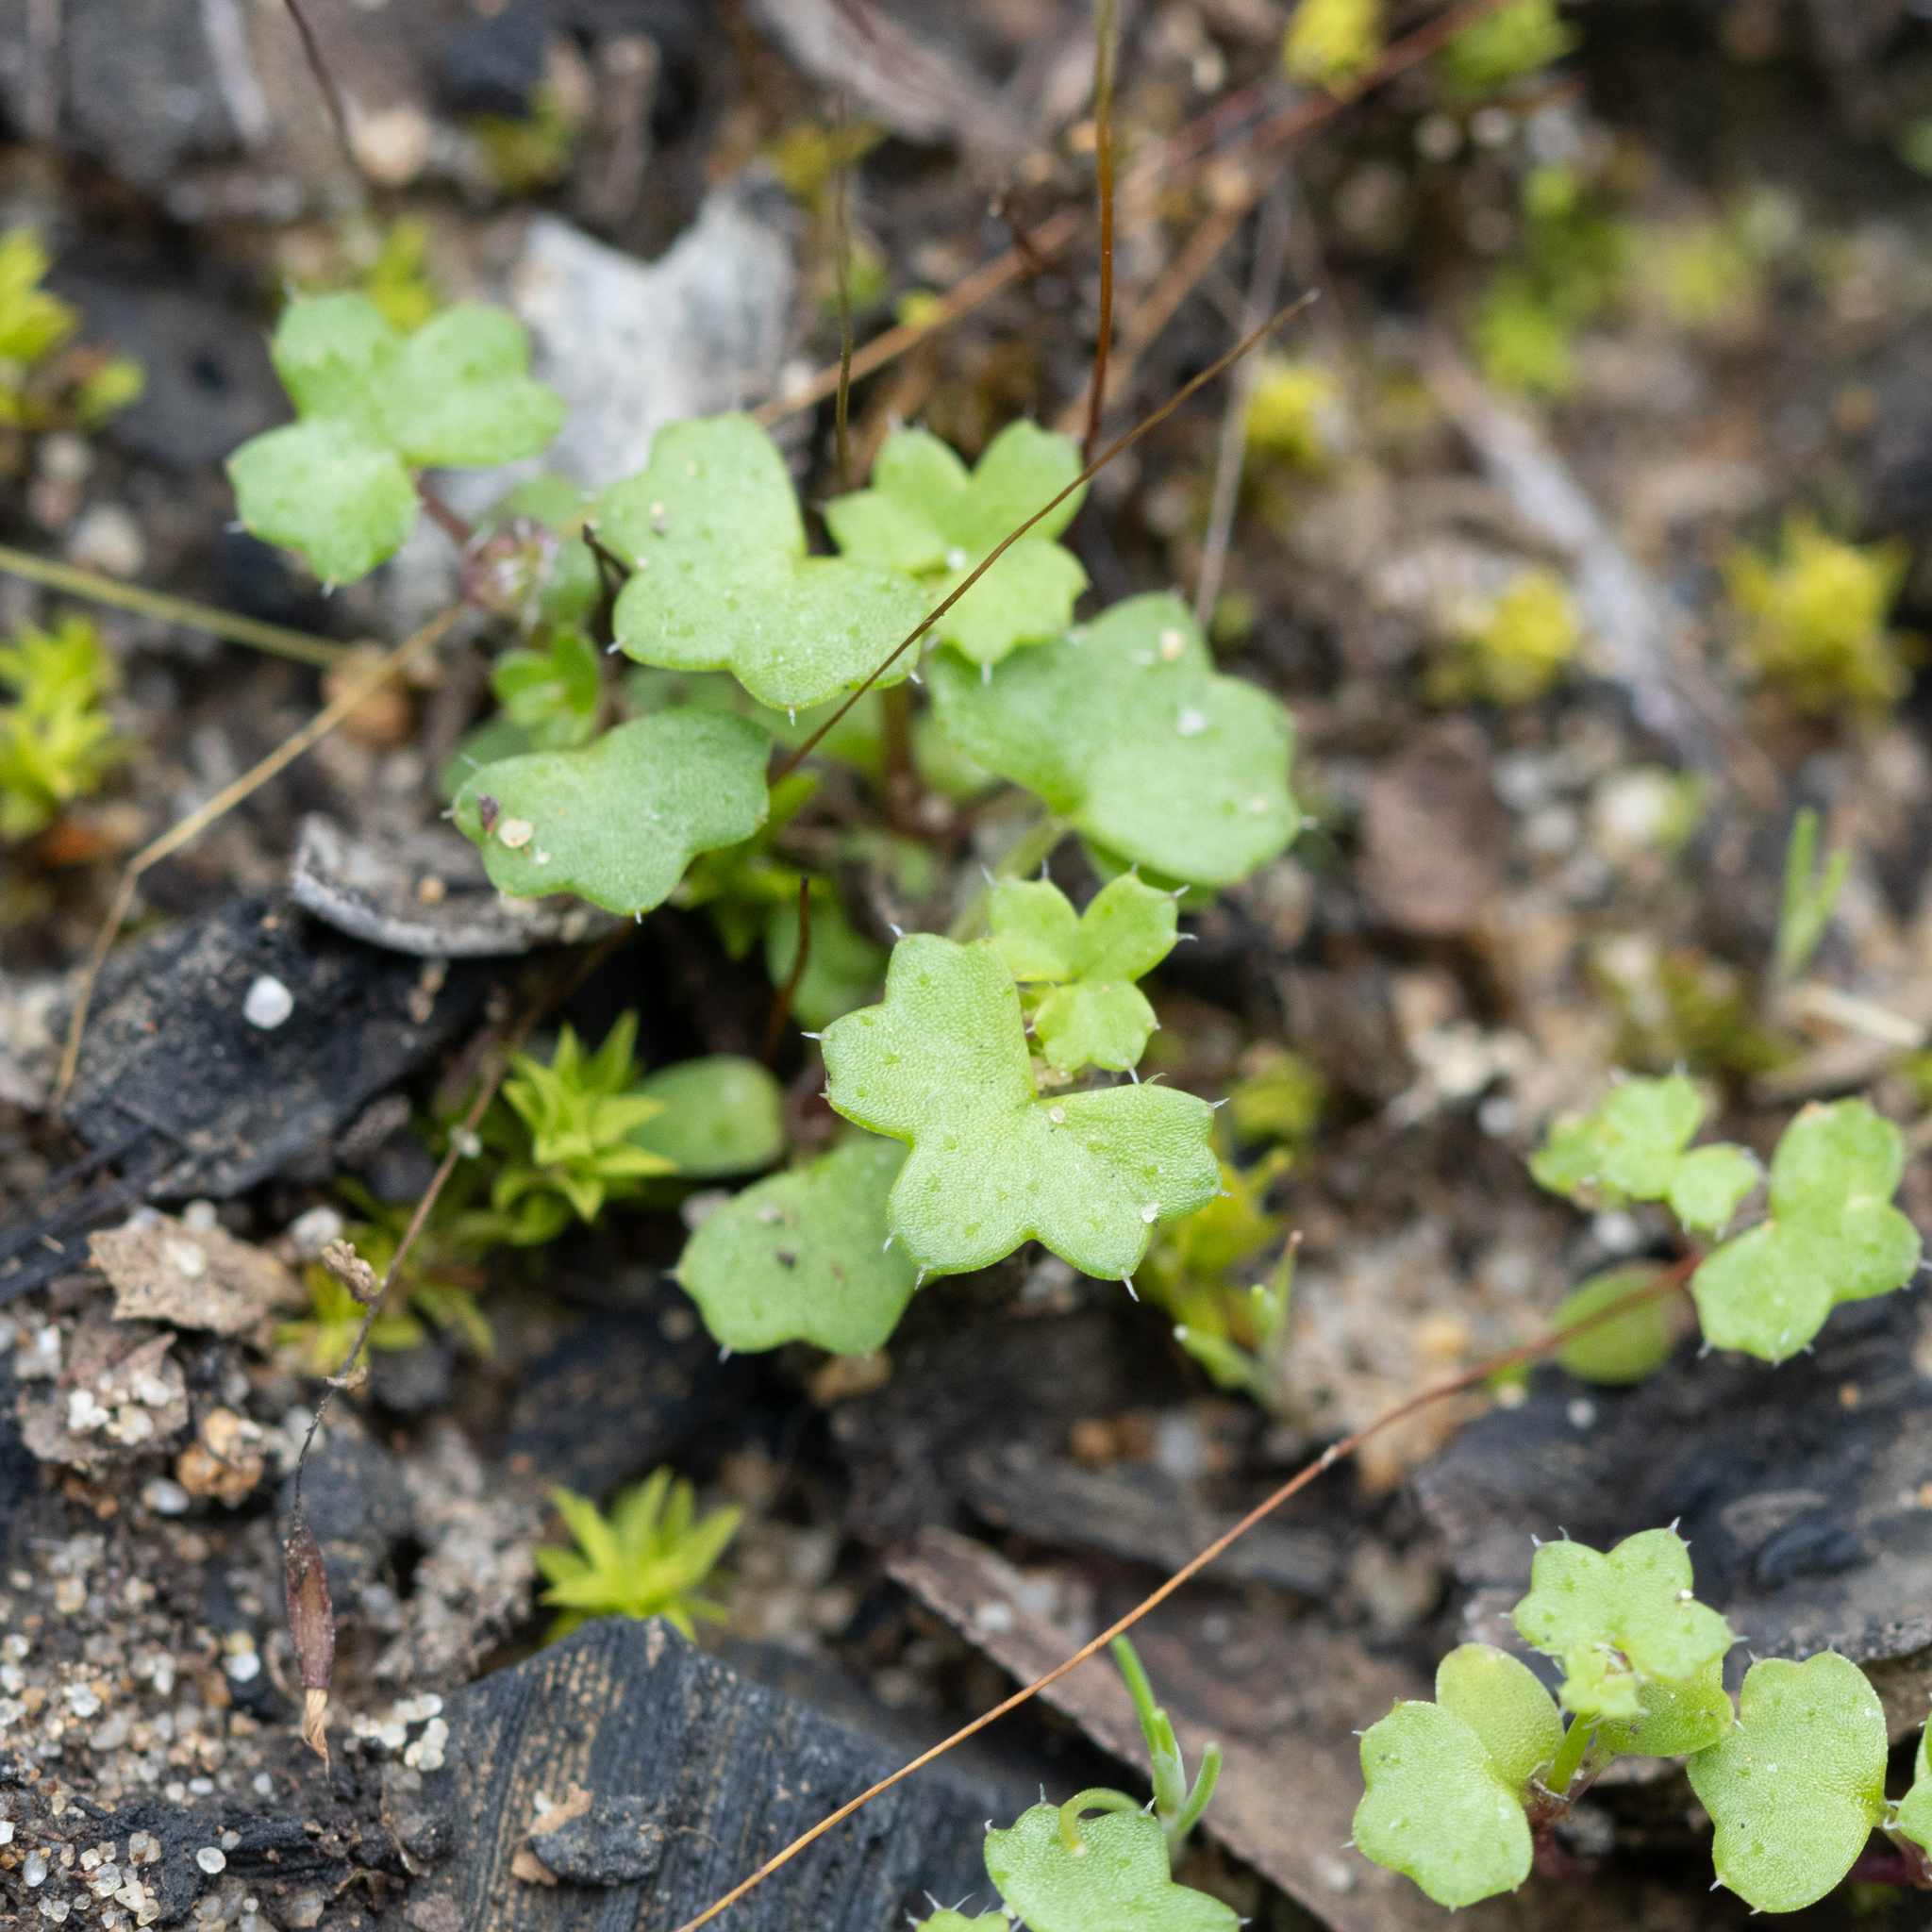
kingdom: Plantae
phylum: Tracheophyta
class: Magnoliopsida
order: Apiales
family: Araliaceae
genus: Hydrocotyle
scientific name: Hydrocotyle callicarpa
